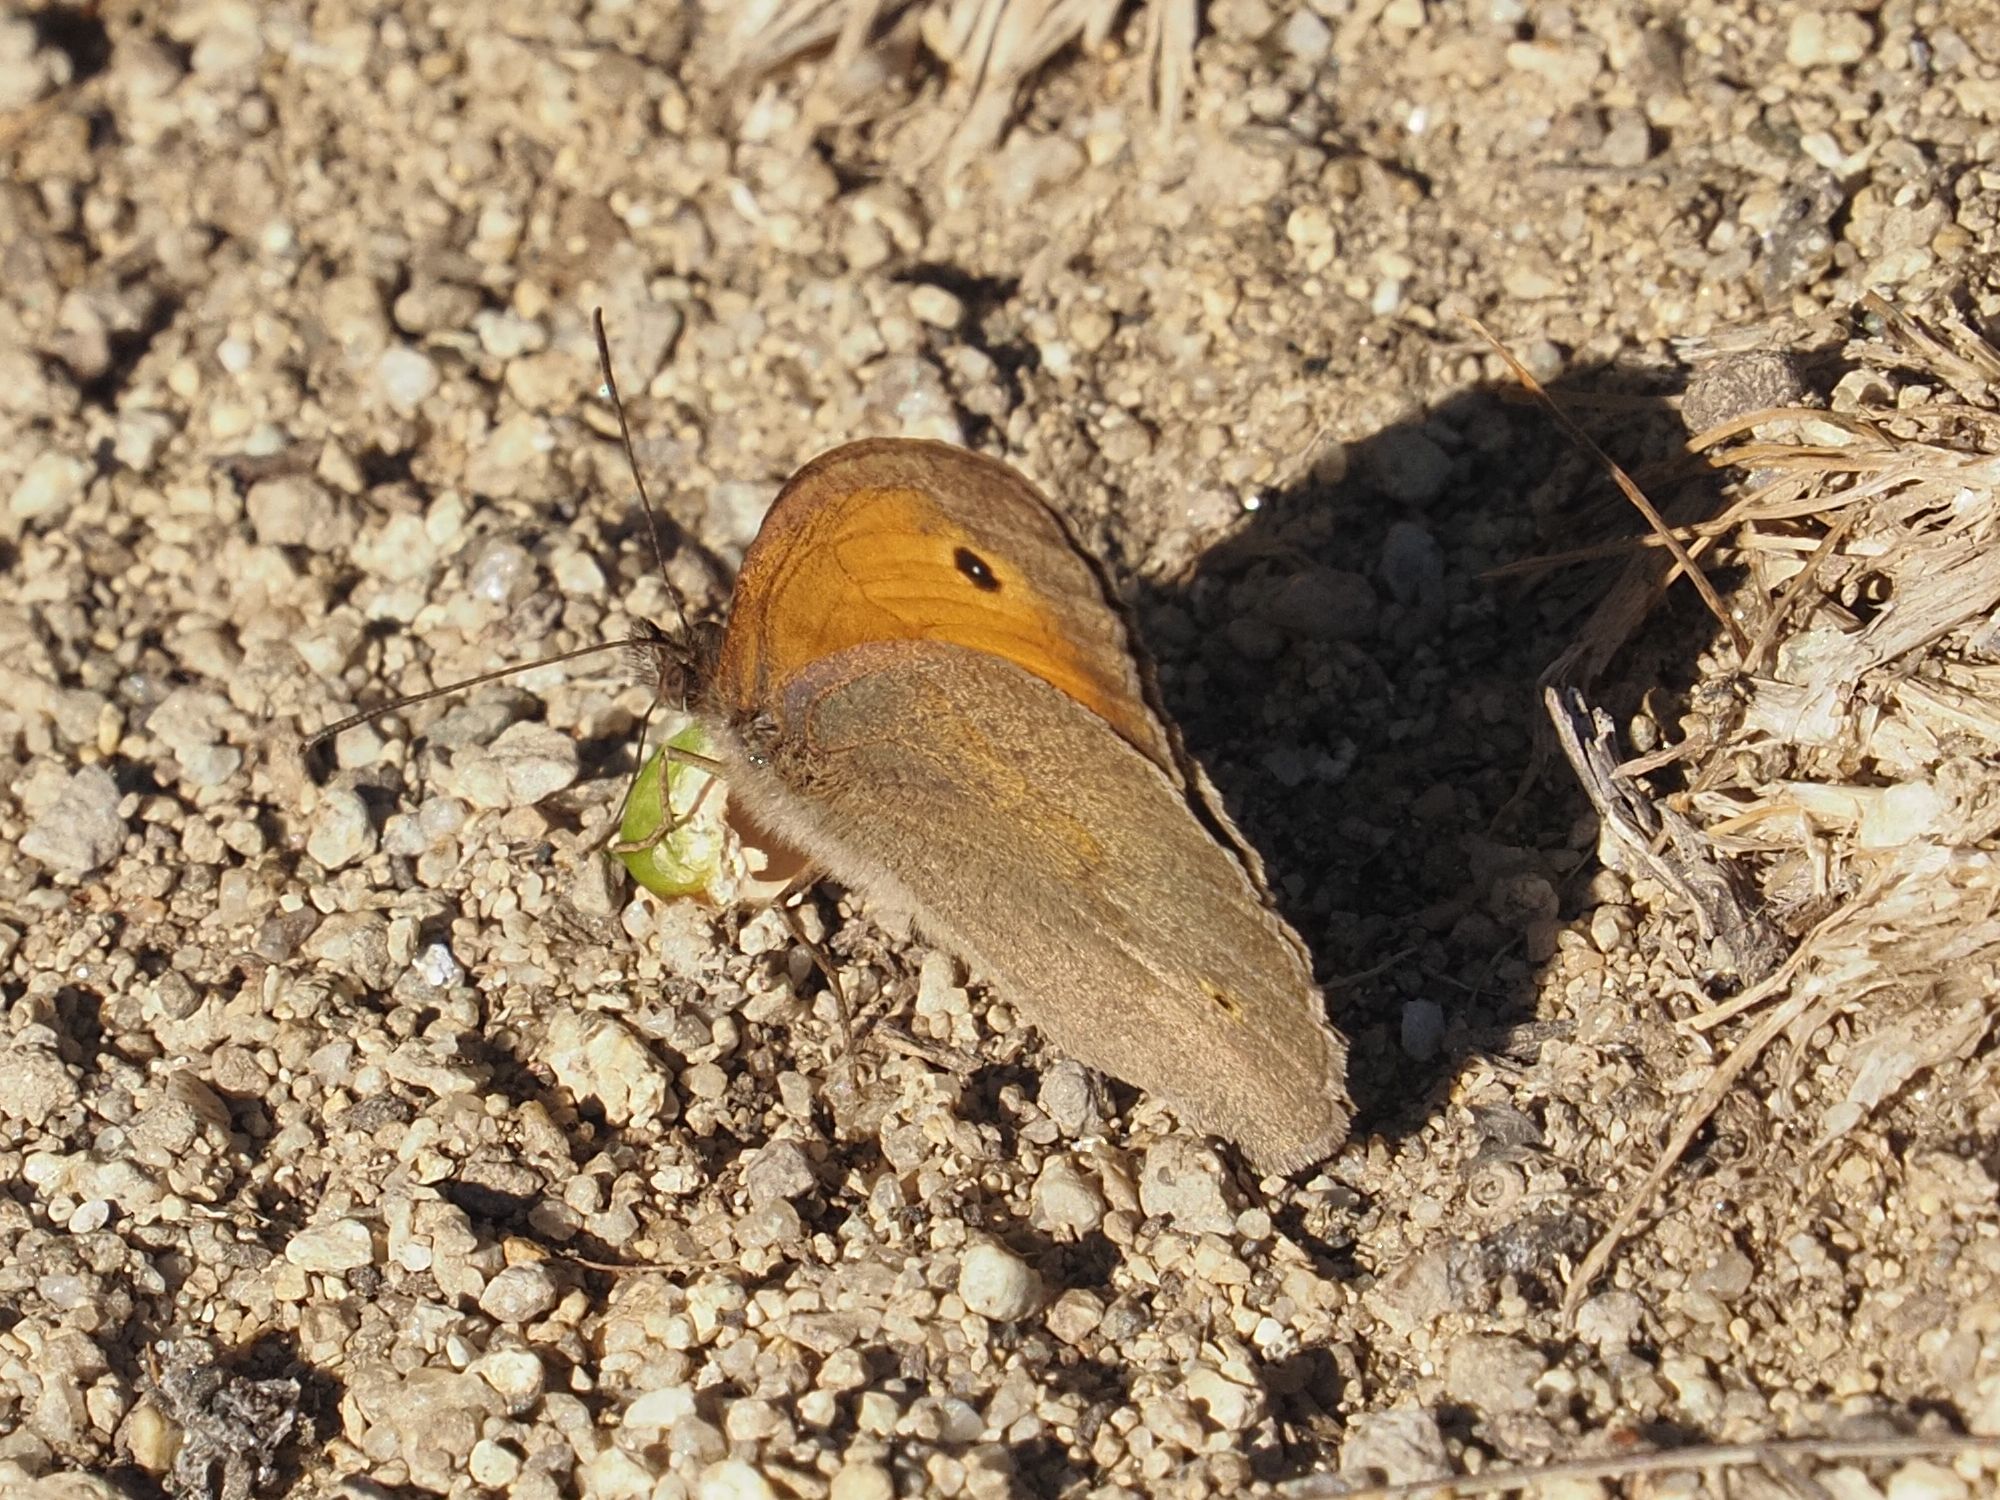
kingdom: Animalia
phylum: Arthropoda
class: Insecta
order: Lepidoptera
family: Nymphalidae
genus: Maniola
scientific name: Maniola jurtina
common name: Meadow brown
